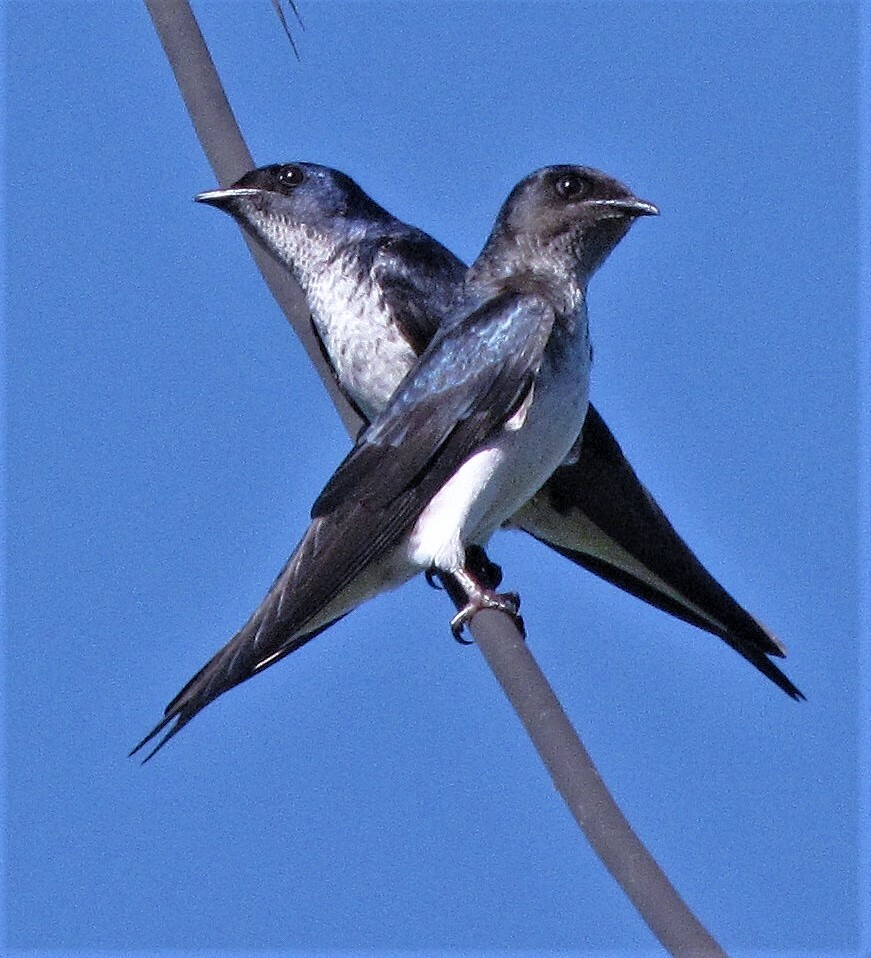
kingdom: Animalia
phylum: Chordata
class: Aves
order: Passeriformes
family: Hirundinidae
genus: Progne
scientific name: Progne chalybea
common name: Grey-breasted martin
